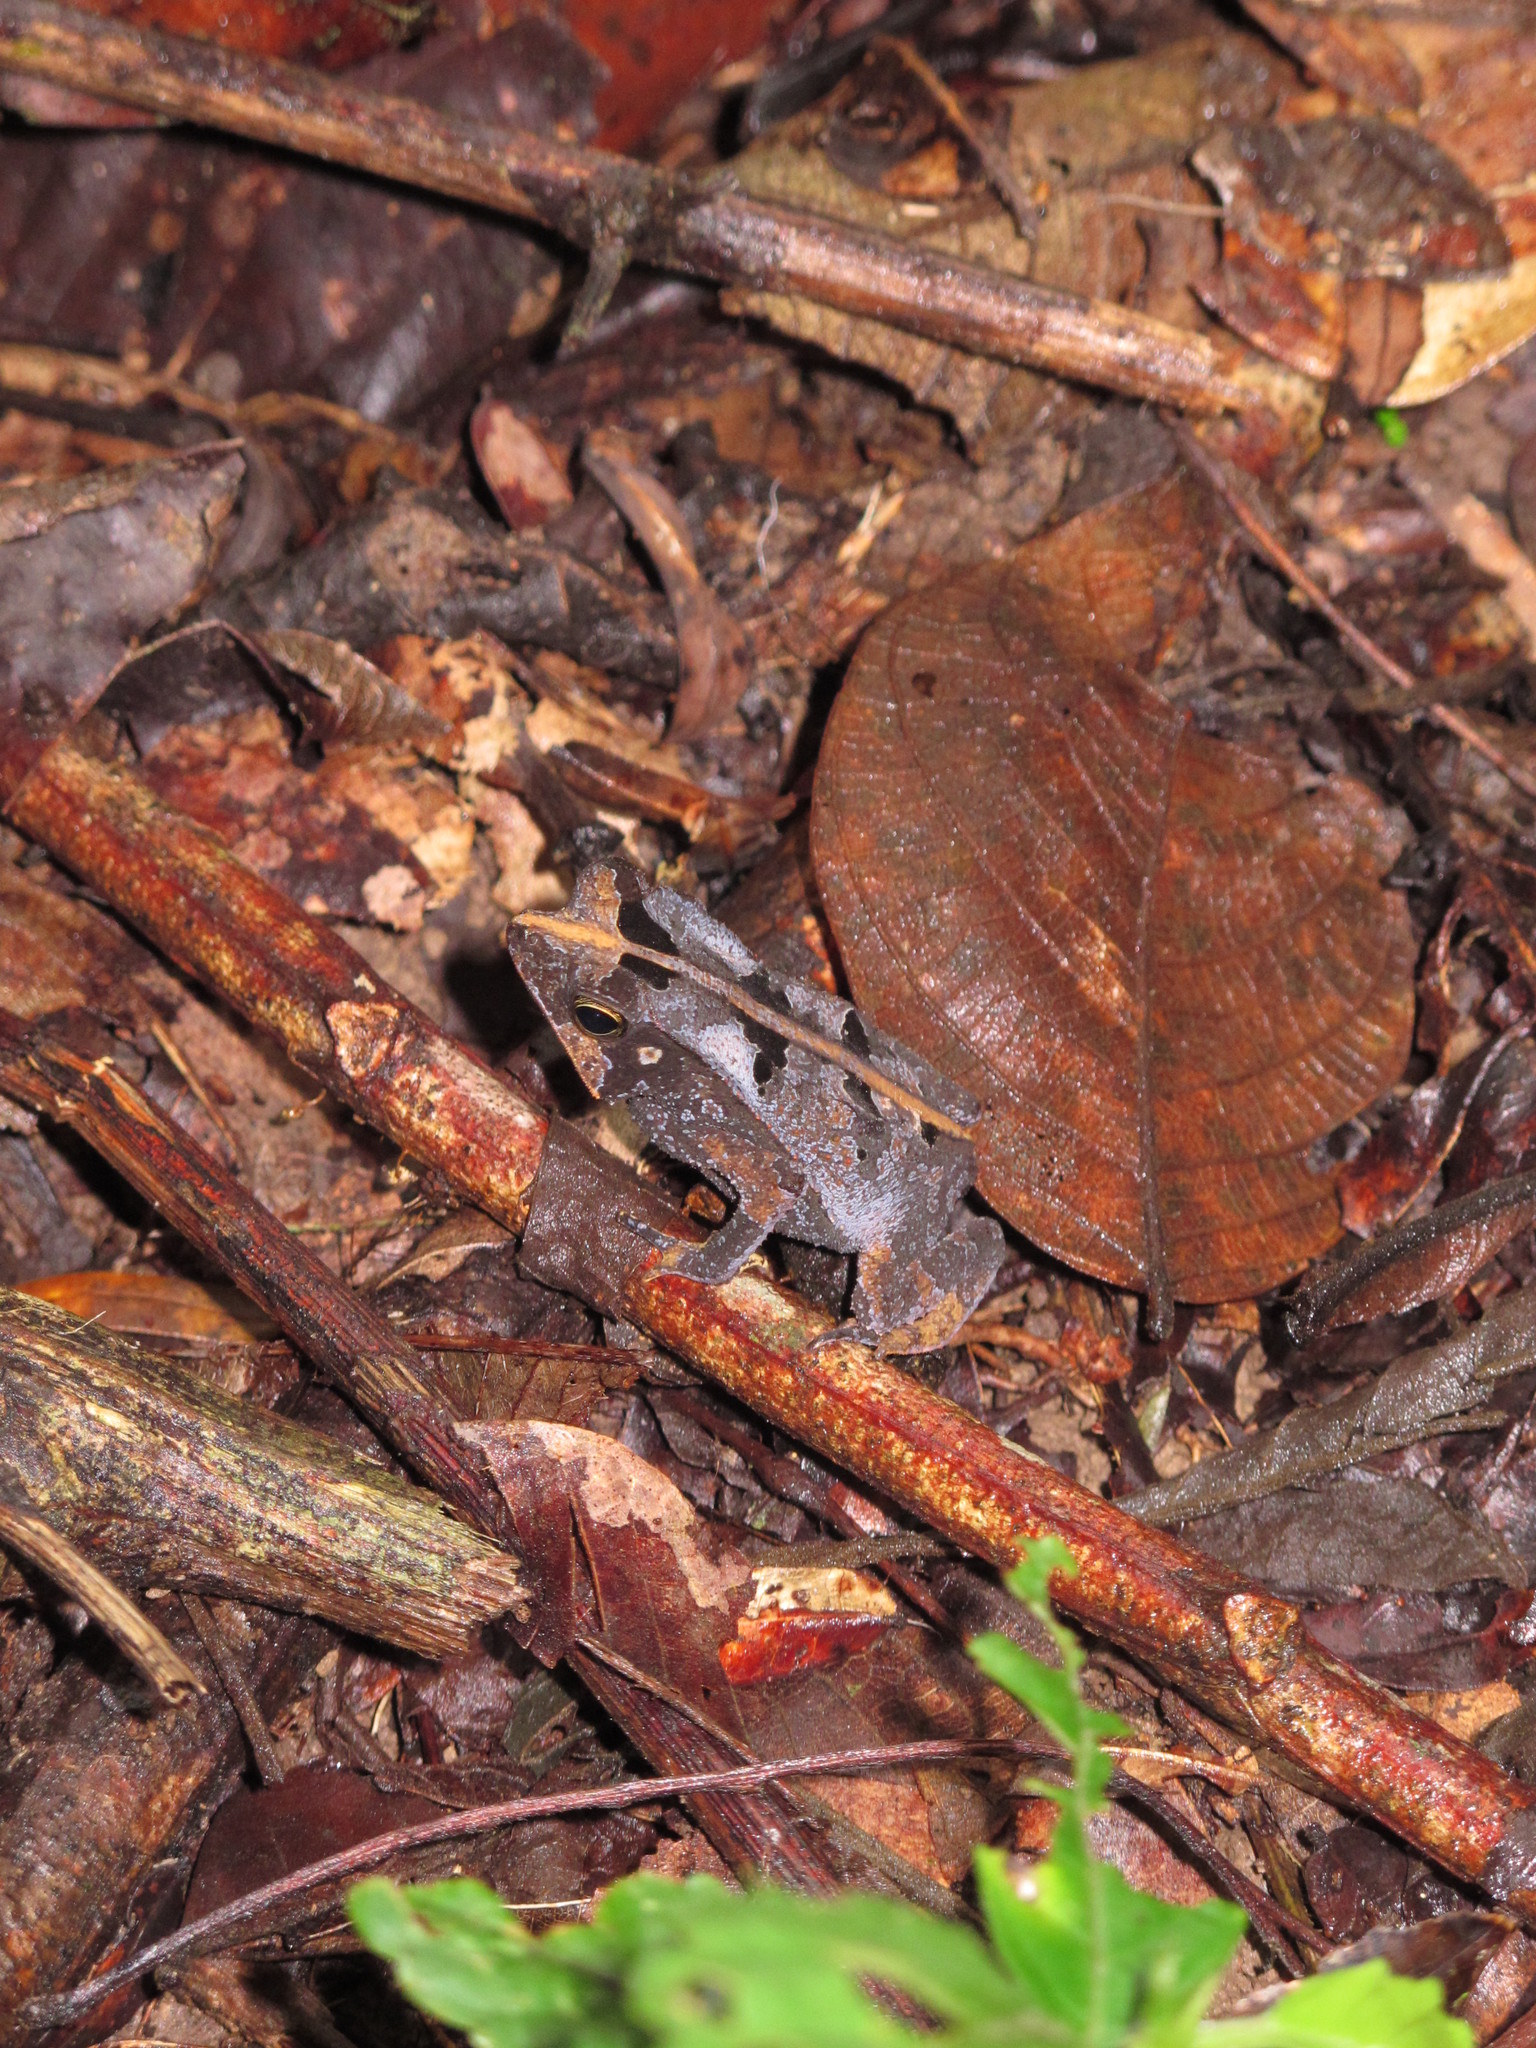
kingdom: Animalia
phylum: Chordata
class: Amphibia
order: Anura
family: Bufonidae
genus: Rhinella
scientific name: Rhinella margaritifera
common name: Mitred toad
